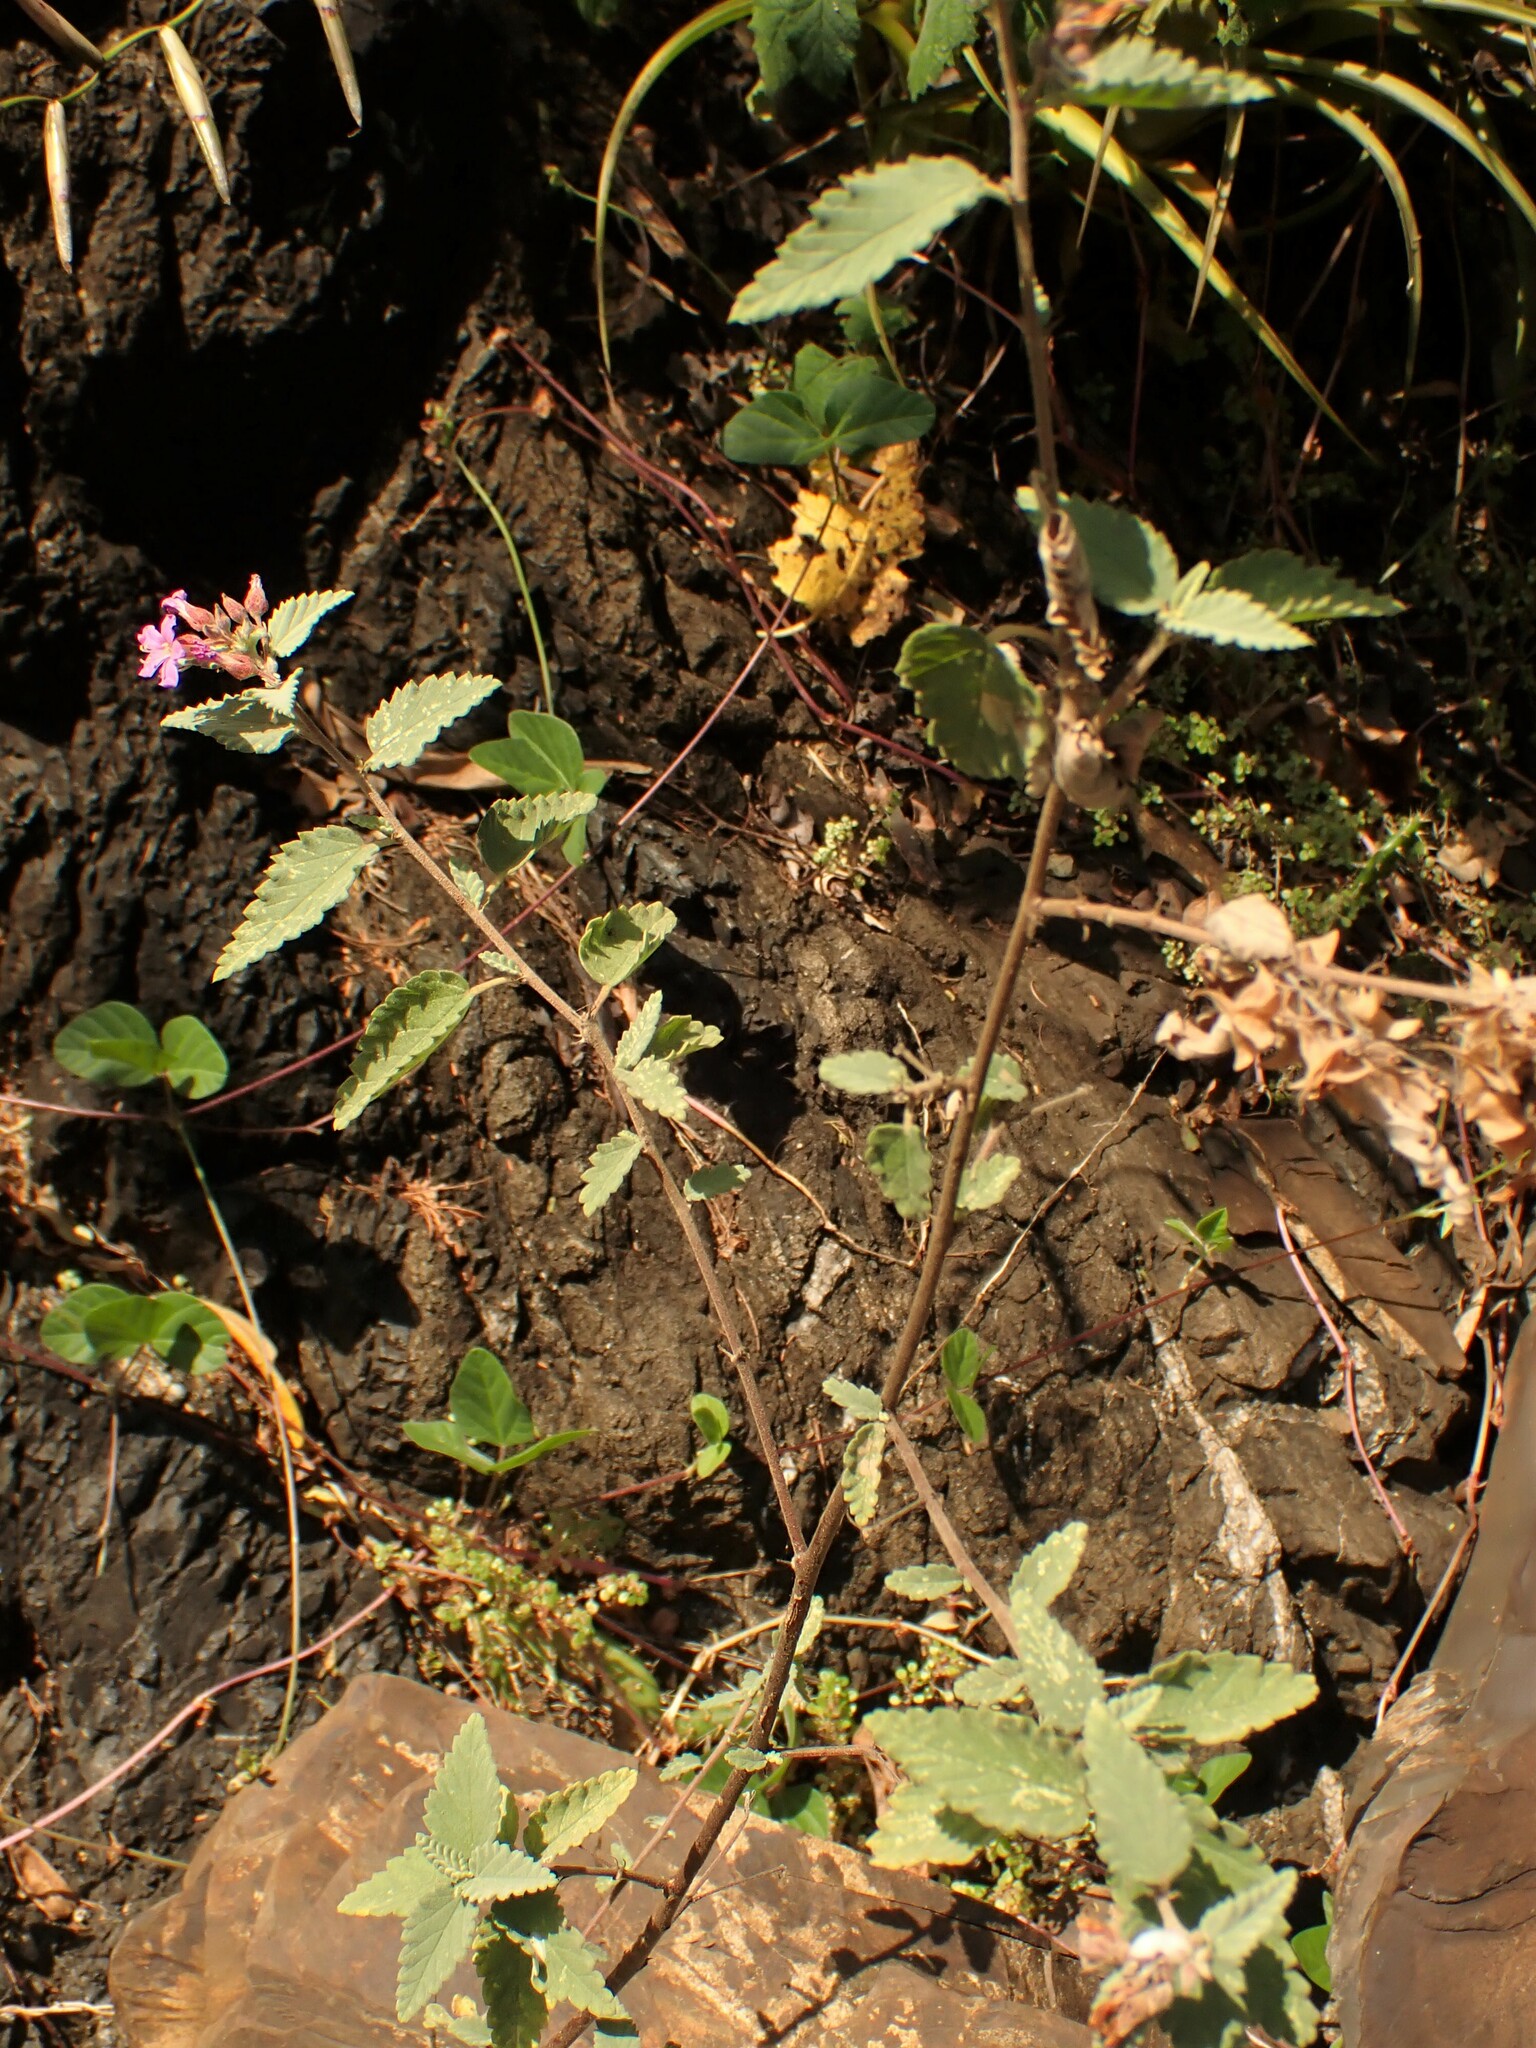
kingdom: Plantae
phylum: Tracheophyta
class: Magnoliopsida
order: Malvales
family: Malvaceae
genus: Melochia
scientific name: Melochia tomentosa
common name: Black torch
